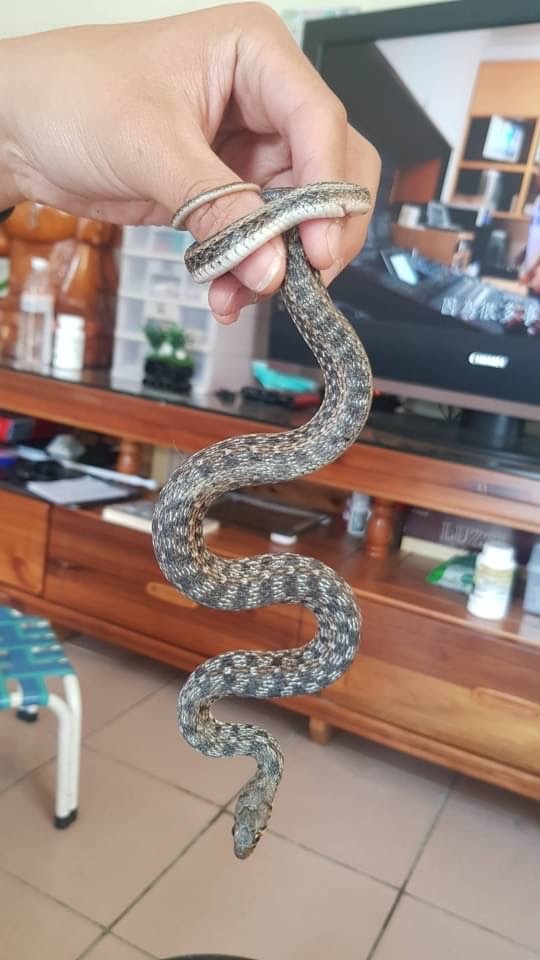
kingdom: Animalia
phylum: Chordata
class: Squamata
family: Colubridae
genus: Amphiesma
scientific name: Amphiesma stolatum
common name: Buff striped keelback
